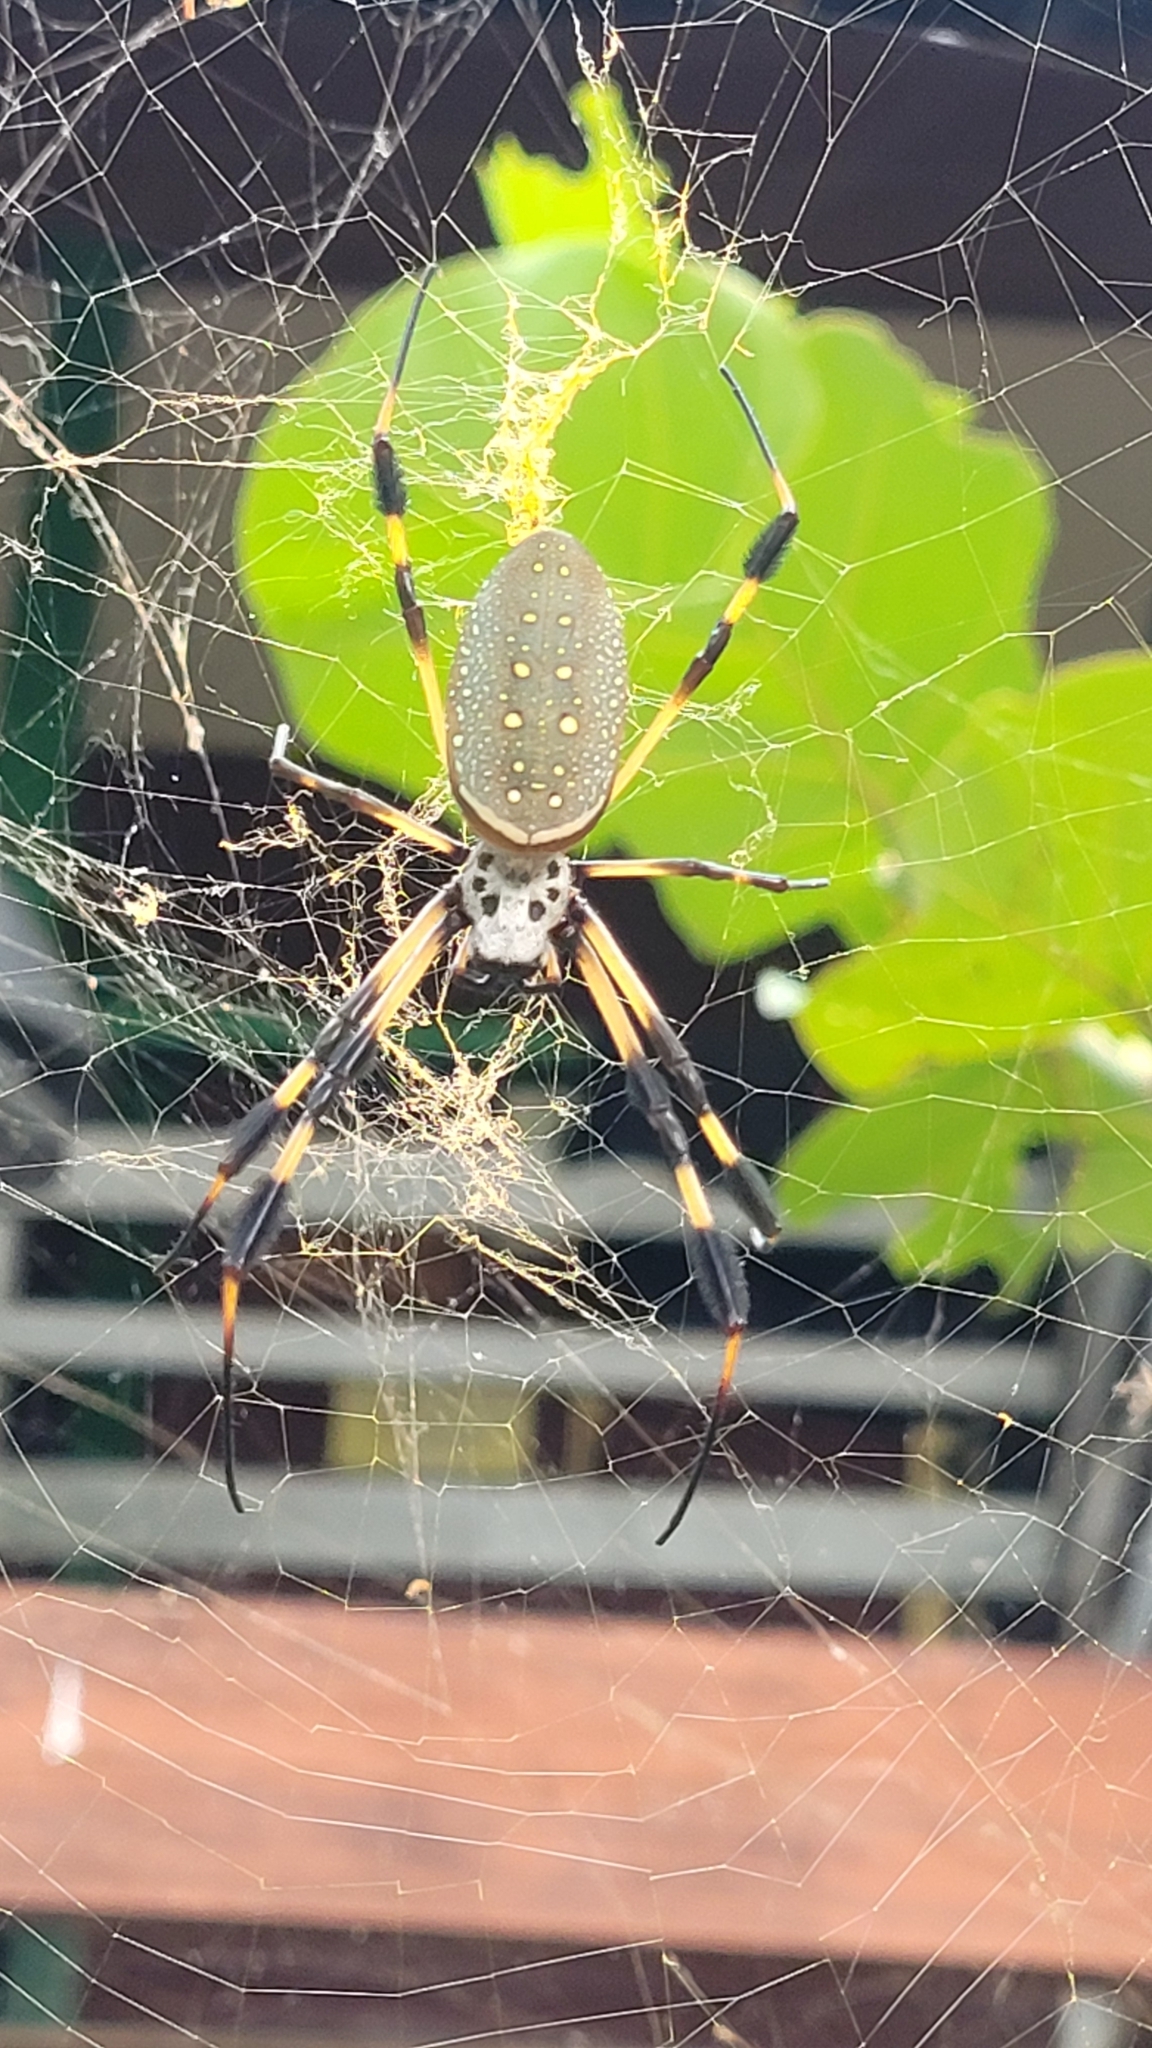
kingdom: Animalia
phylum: Arthropoda
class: Arachnida
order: Araneae
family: Araneidae
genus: Trichonephila
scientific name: Trichonephila clavipes
